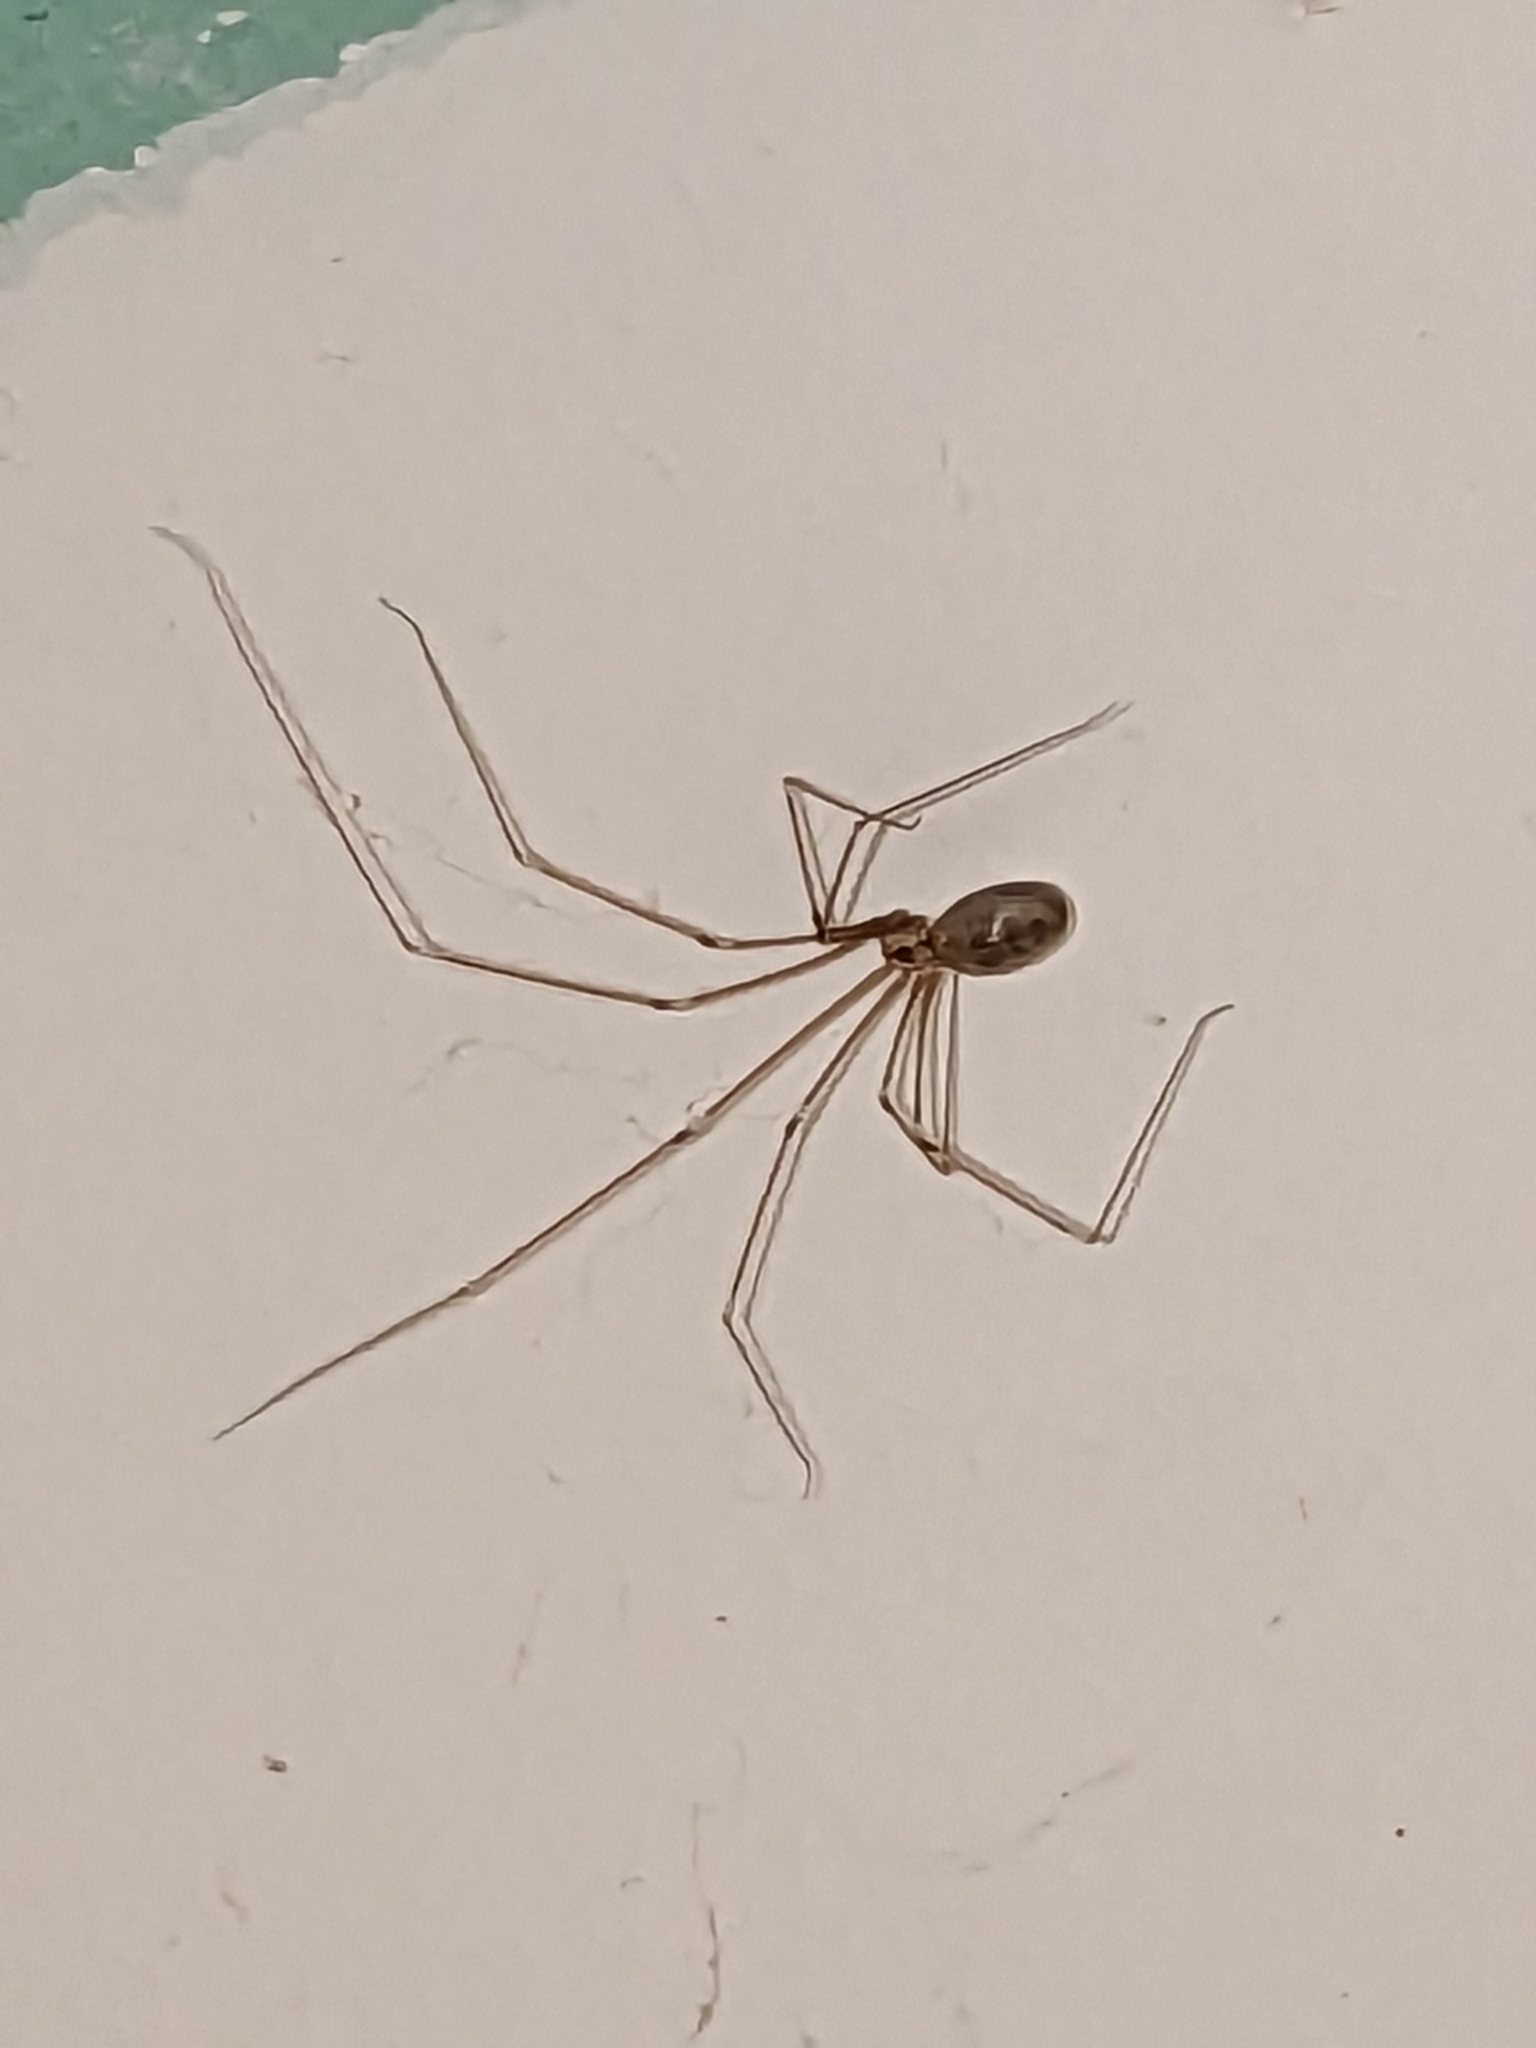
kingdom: Animalia
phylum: Arthropoda
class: Arachnida
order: Araneae
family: Pholcidae
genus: Pholcus
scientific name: Pholcus phalangioides
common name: Longbodied cellar spider
